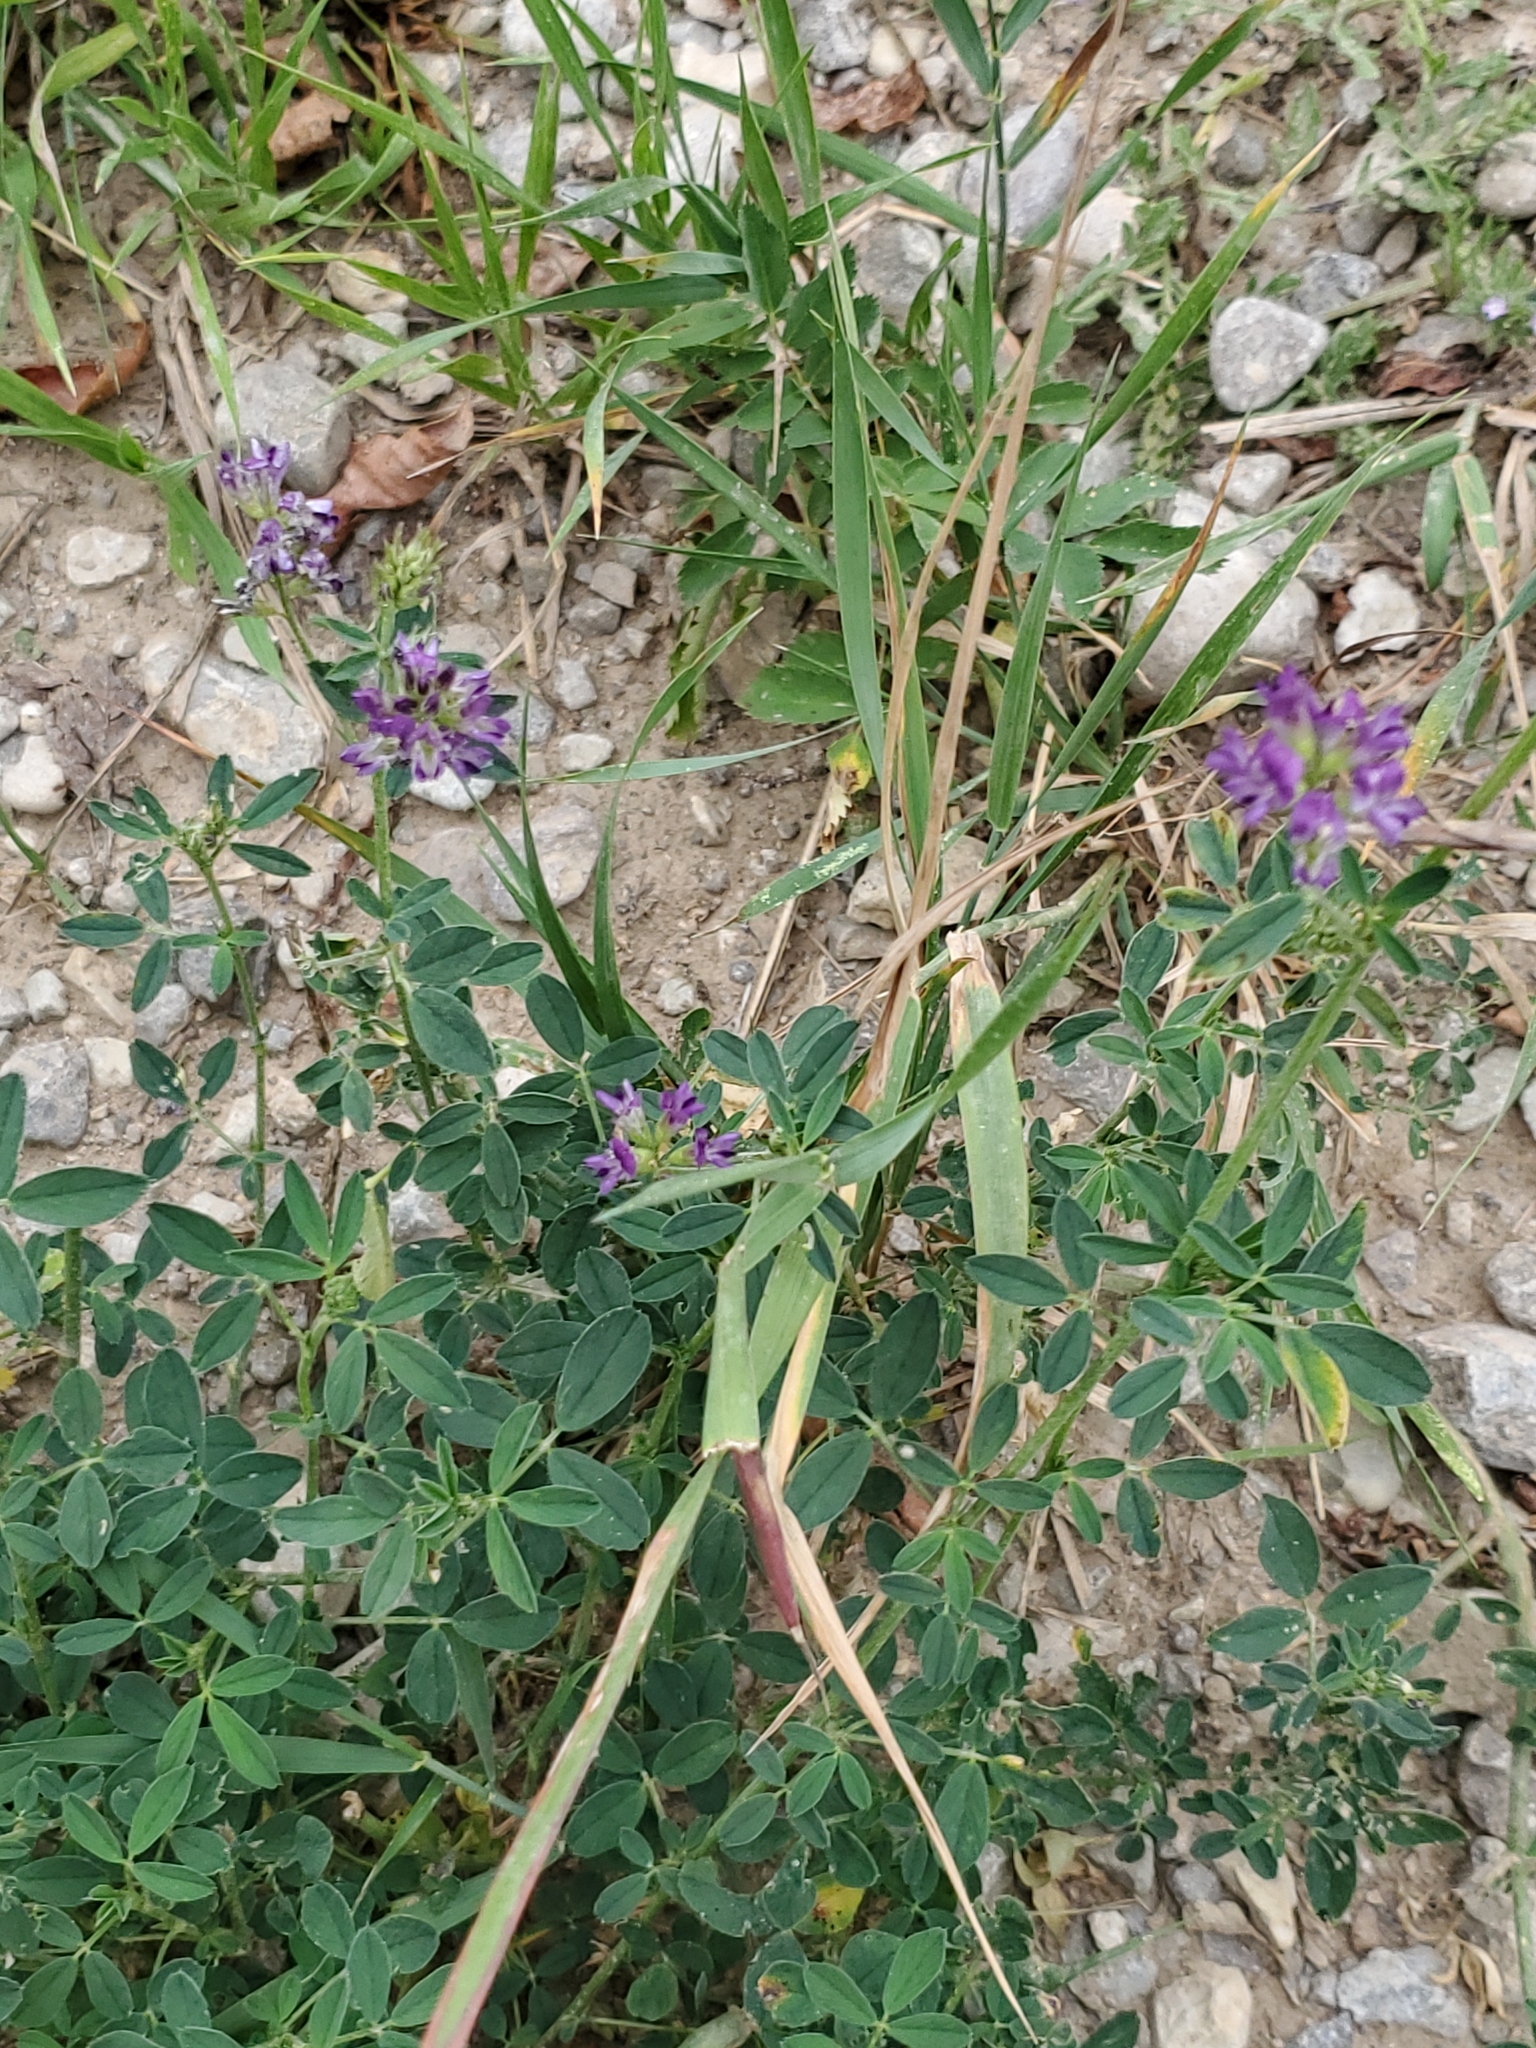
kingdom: Plantae
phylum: Tracheophyta
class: Magnoliopsida
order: Fabales
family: Fabaceae
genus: Medicago
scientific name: Medicago sativa
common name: Alfalfa
